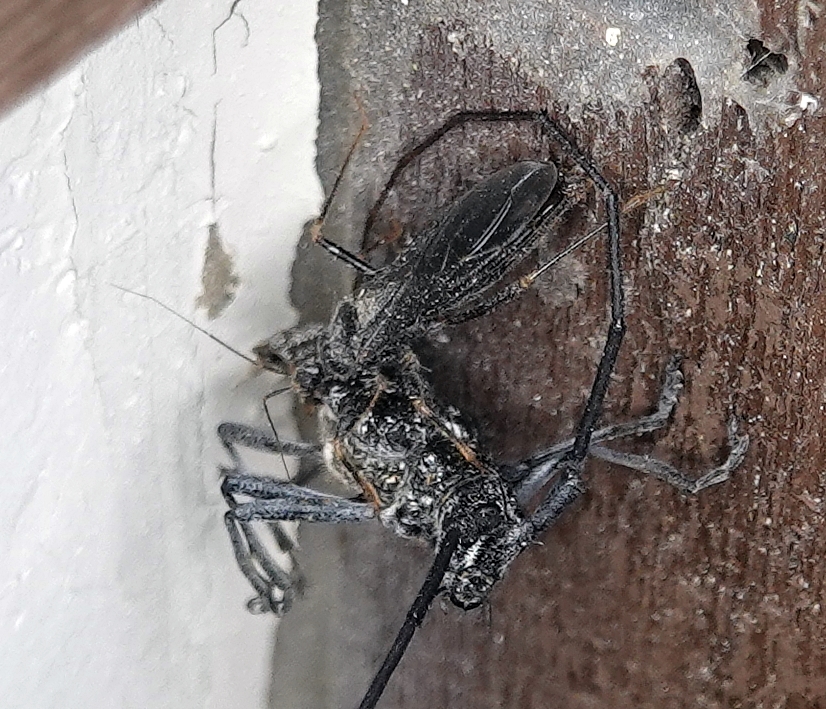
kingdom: Animalia
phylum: Arthropoda
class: Insecta
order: Hemiptera
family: Reduviidae
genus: Reduvius
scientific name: Reduvius personatus
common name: Masked hunter
